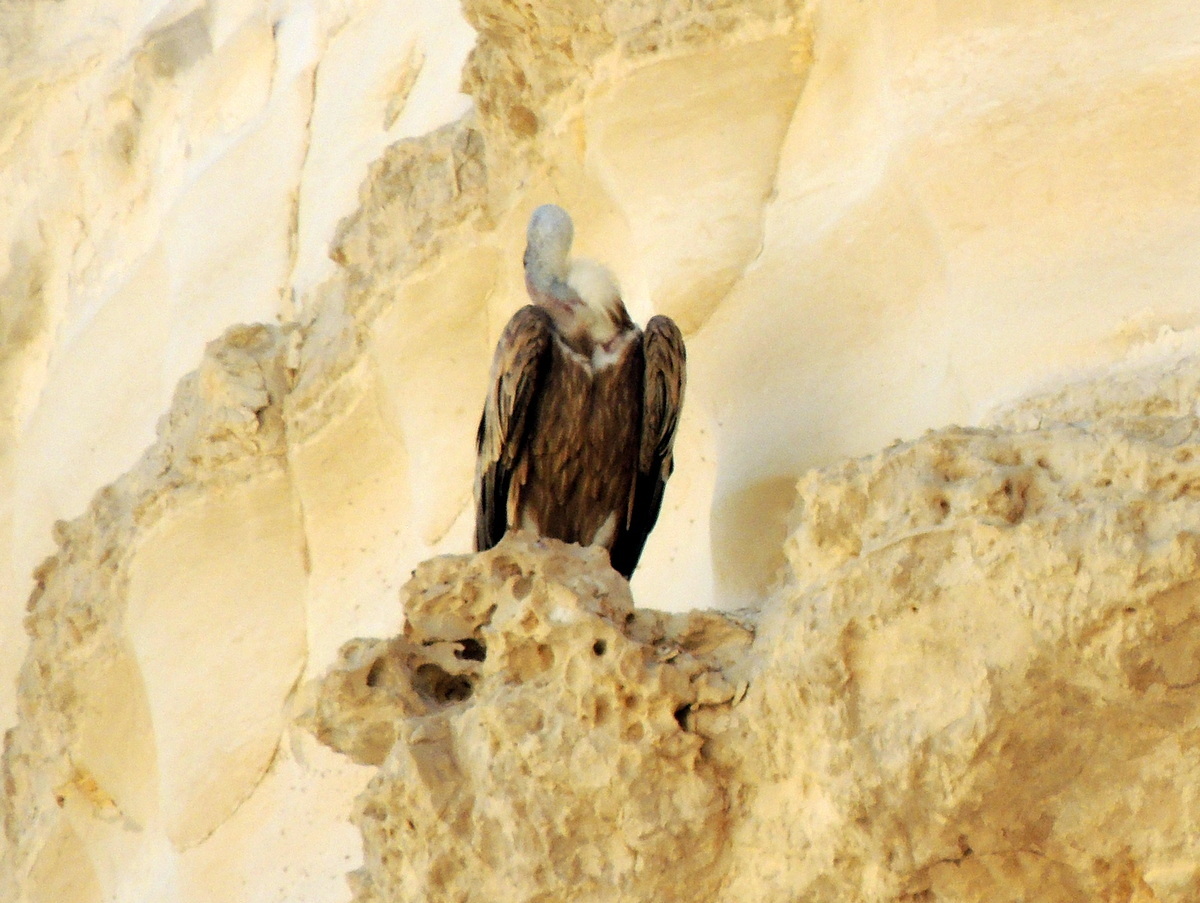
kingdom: Animalia
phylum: Chordata
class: Aves
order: Accipitriformes
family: Accipitridae
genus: Gyps
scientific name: Gyps fulvus
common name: Griffon vulture
